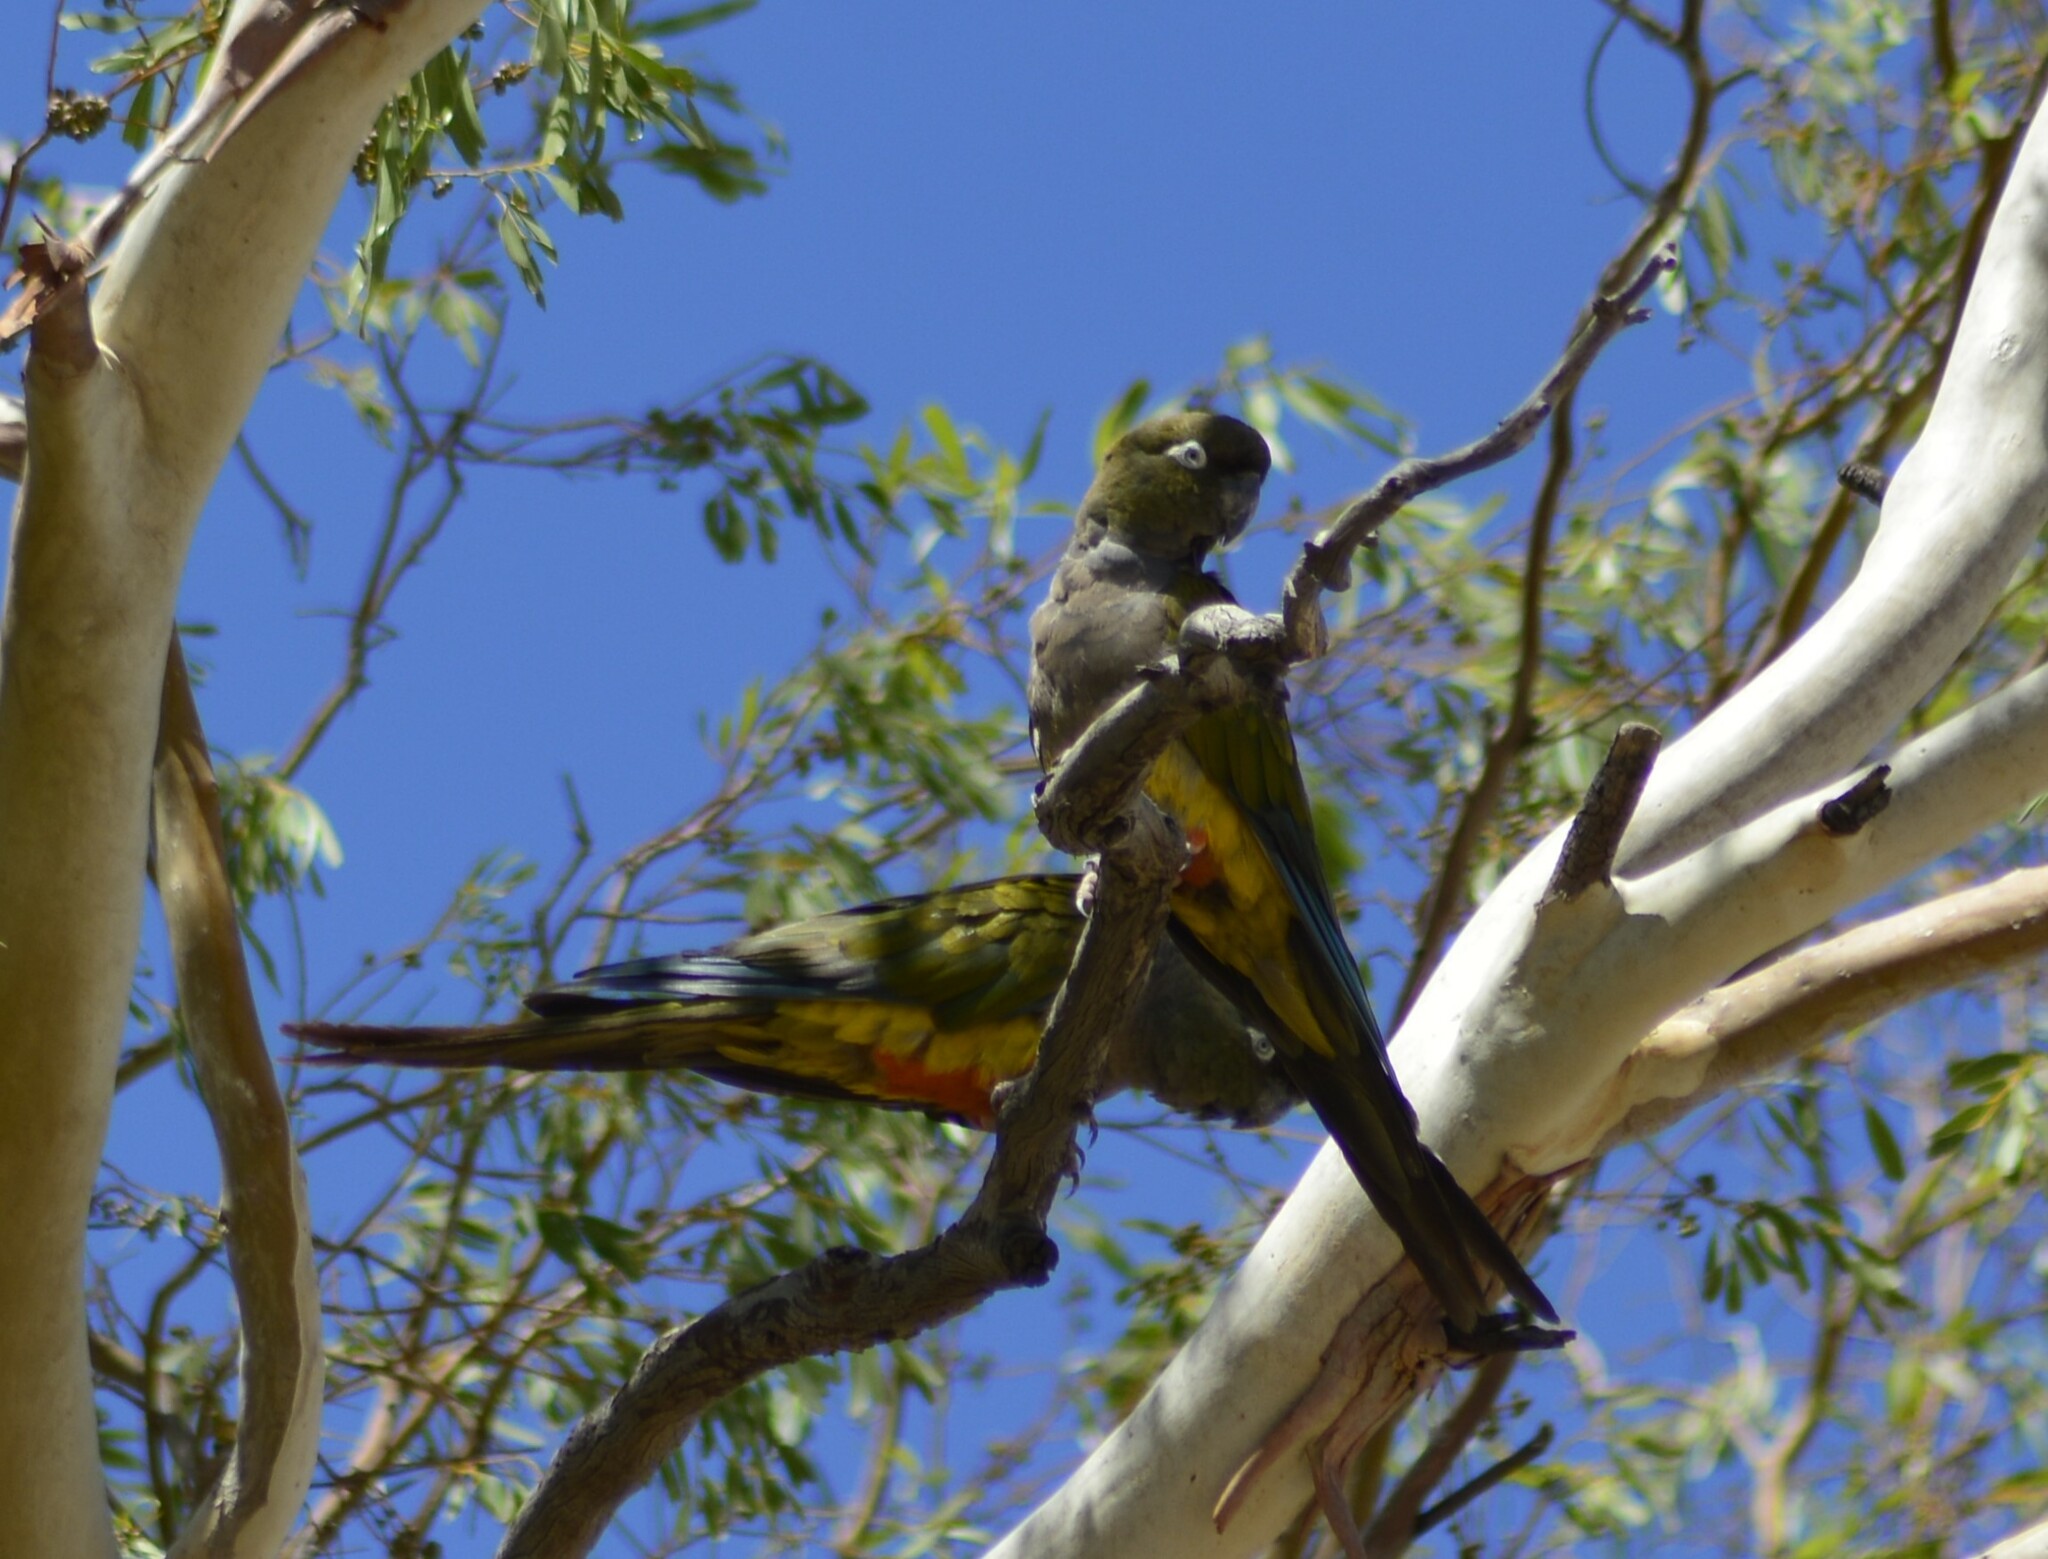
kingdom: Animalia
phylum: Chordata
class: Aves
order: Psittaciformes
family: Psittacidae
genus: Cyanoliseus
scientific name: Cyanoliseus patagonus
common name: Burrowing parrot
